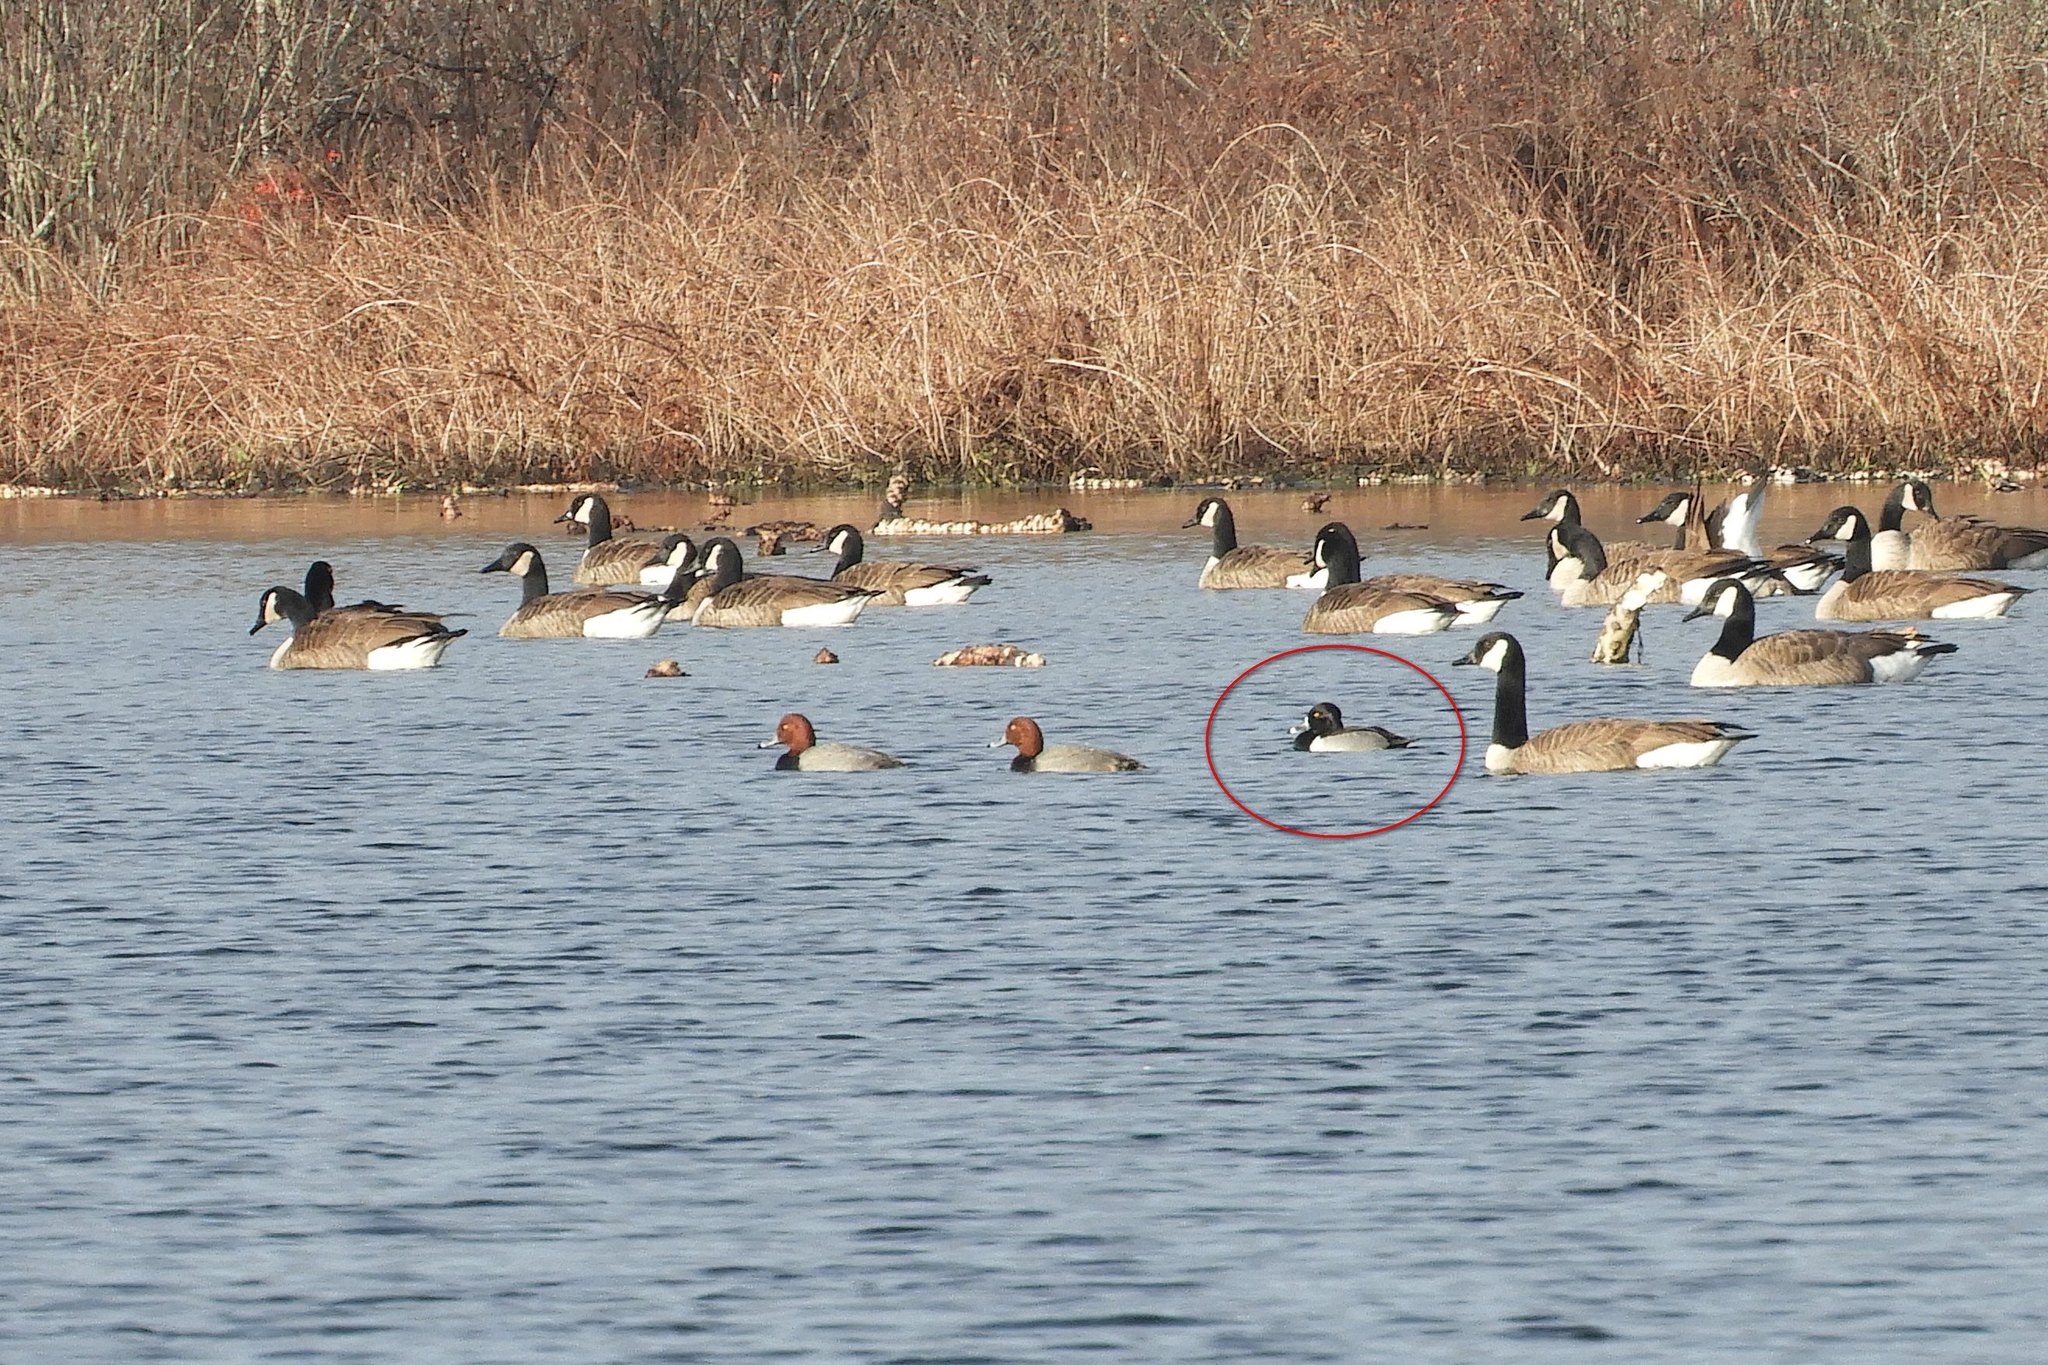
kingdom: Animalia
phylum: Chordata
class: Aves
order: Anseriformes
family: Anatidae
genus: Aythya
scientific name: Aythya collaris
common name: Ring-necked duck
